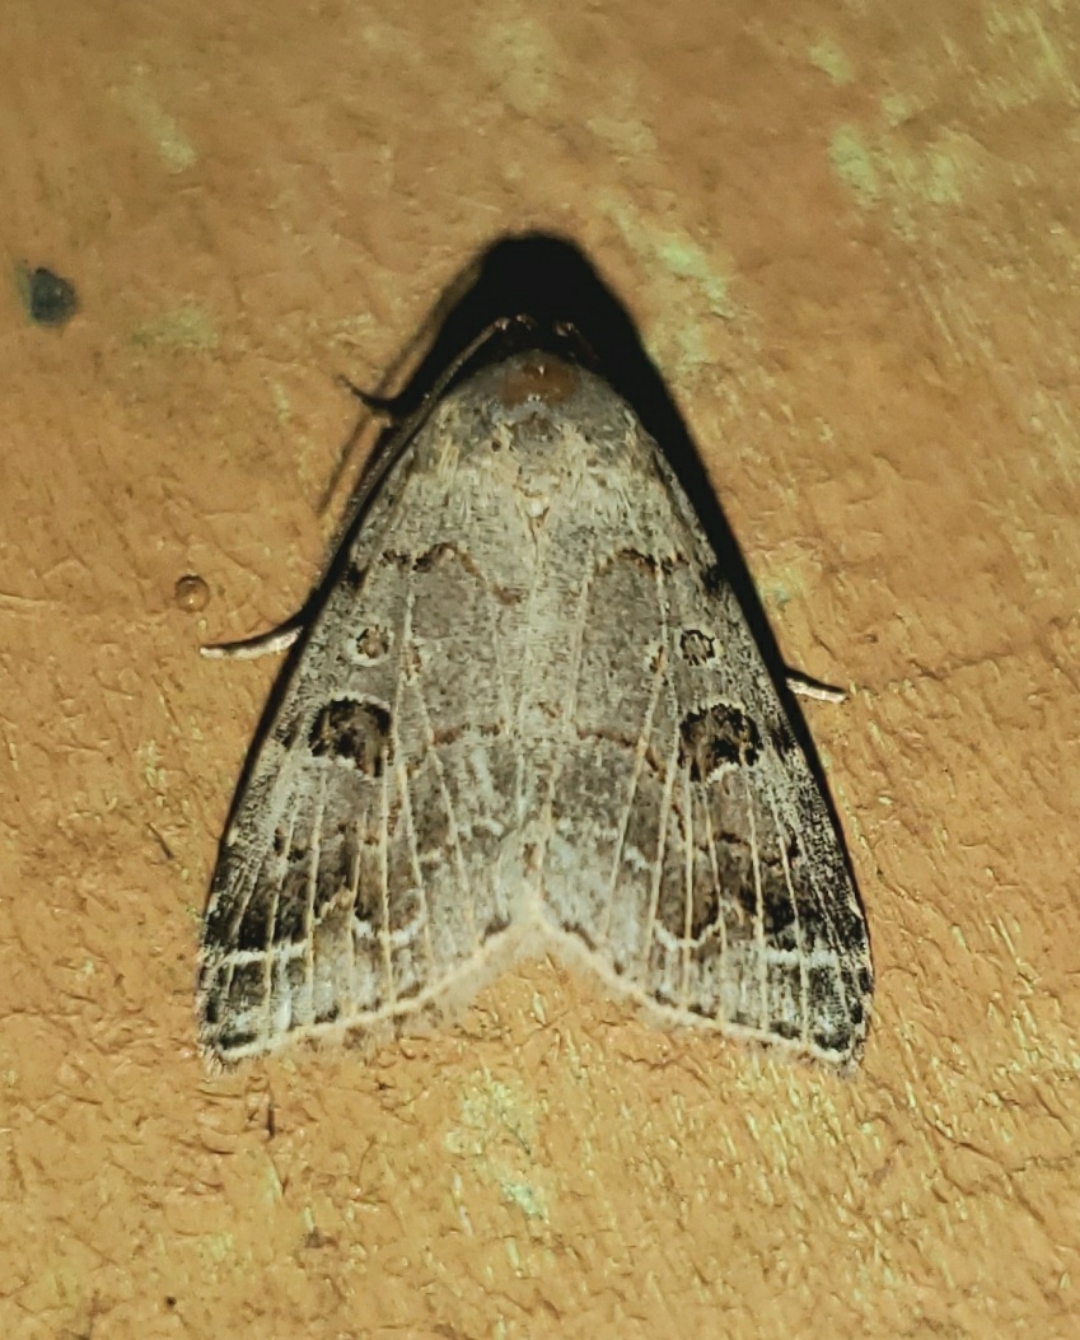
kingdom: Animalia
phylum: Arthropoda
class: Insecta
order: Lepidoptera
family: Erebidae
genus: Glympis
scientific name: Glympis concors
